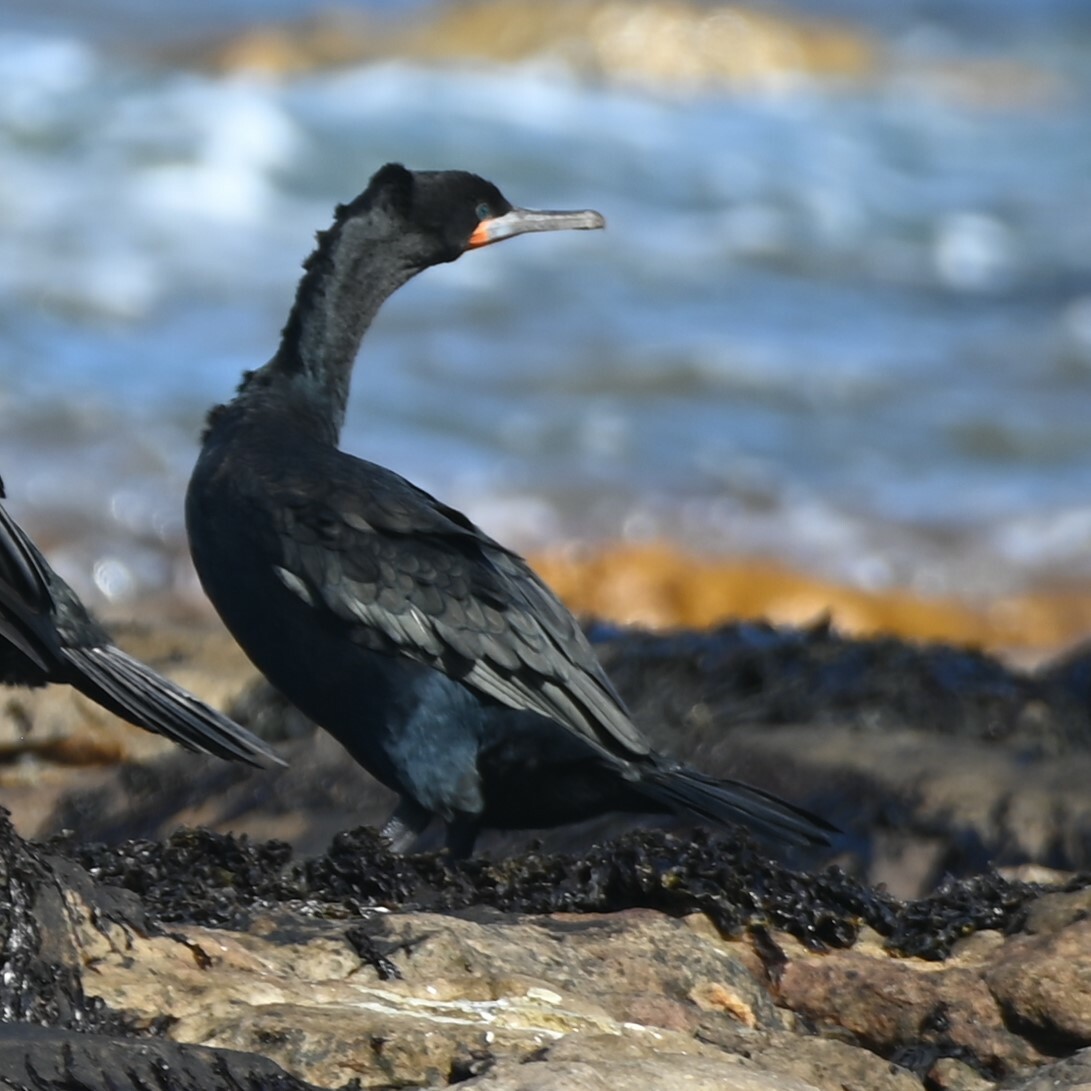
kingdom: Animalia
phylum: Chordata
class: Aves
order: Suliformes
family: Phalacrocoracidae
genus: Phalacrocorax
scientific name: Phalacrocorax capensis
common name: Cape cormorant
